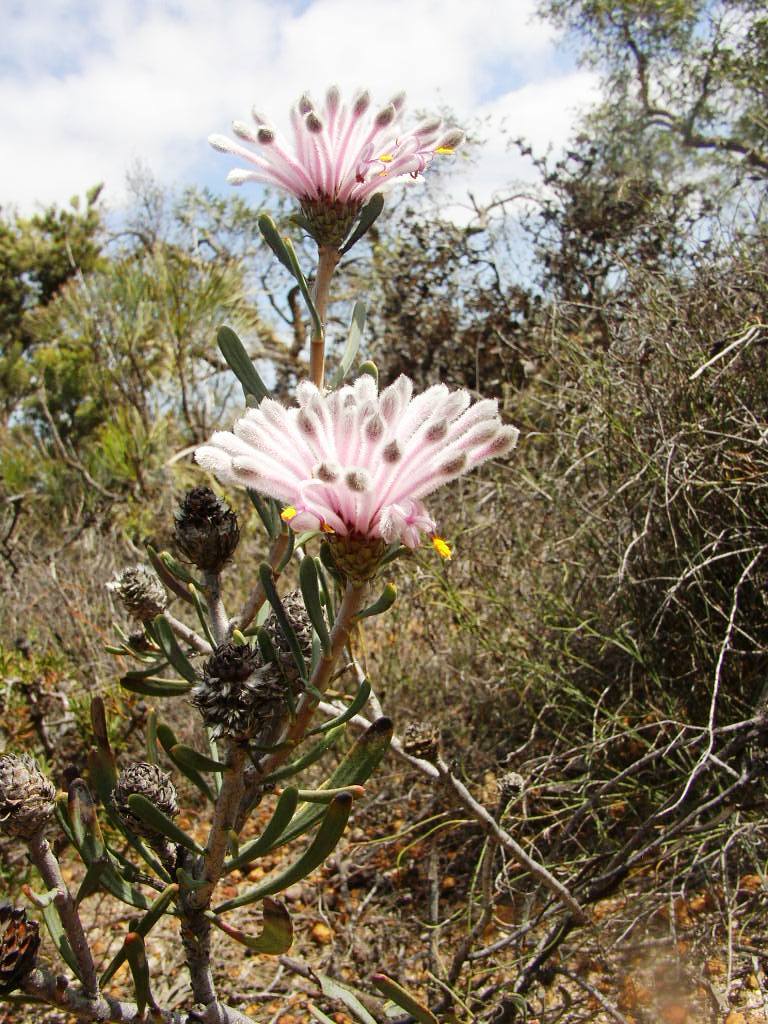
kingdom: Plantae
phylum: Tracheophyta
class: Magnoliopsida
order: Proteales
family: Proteaceae
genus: Petrophile
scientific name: Petrophile linearis
